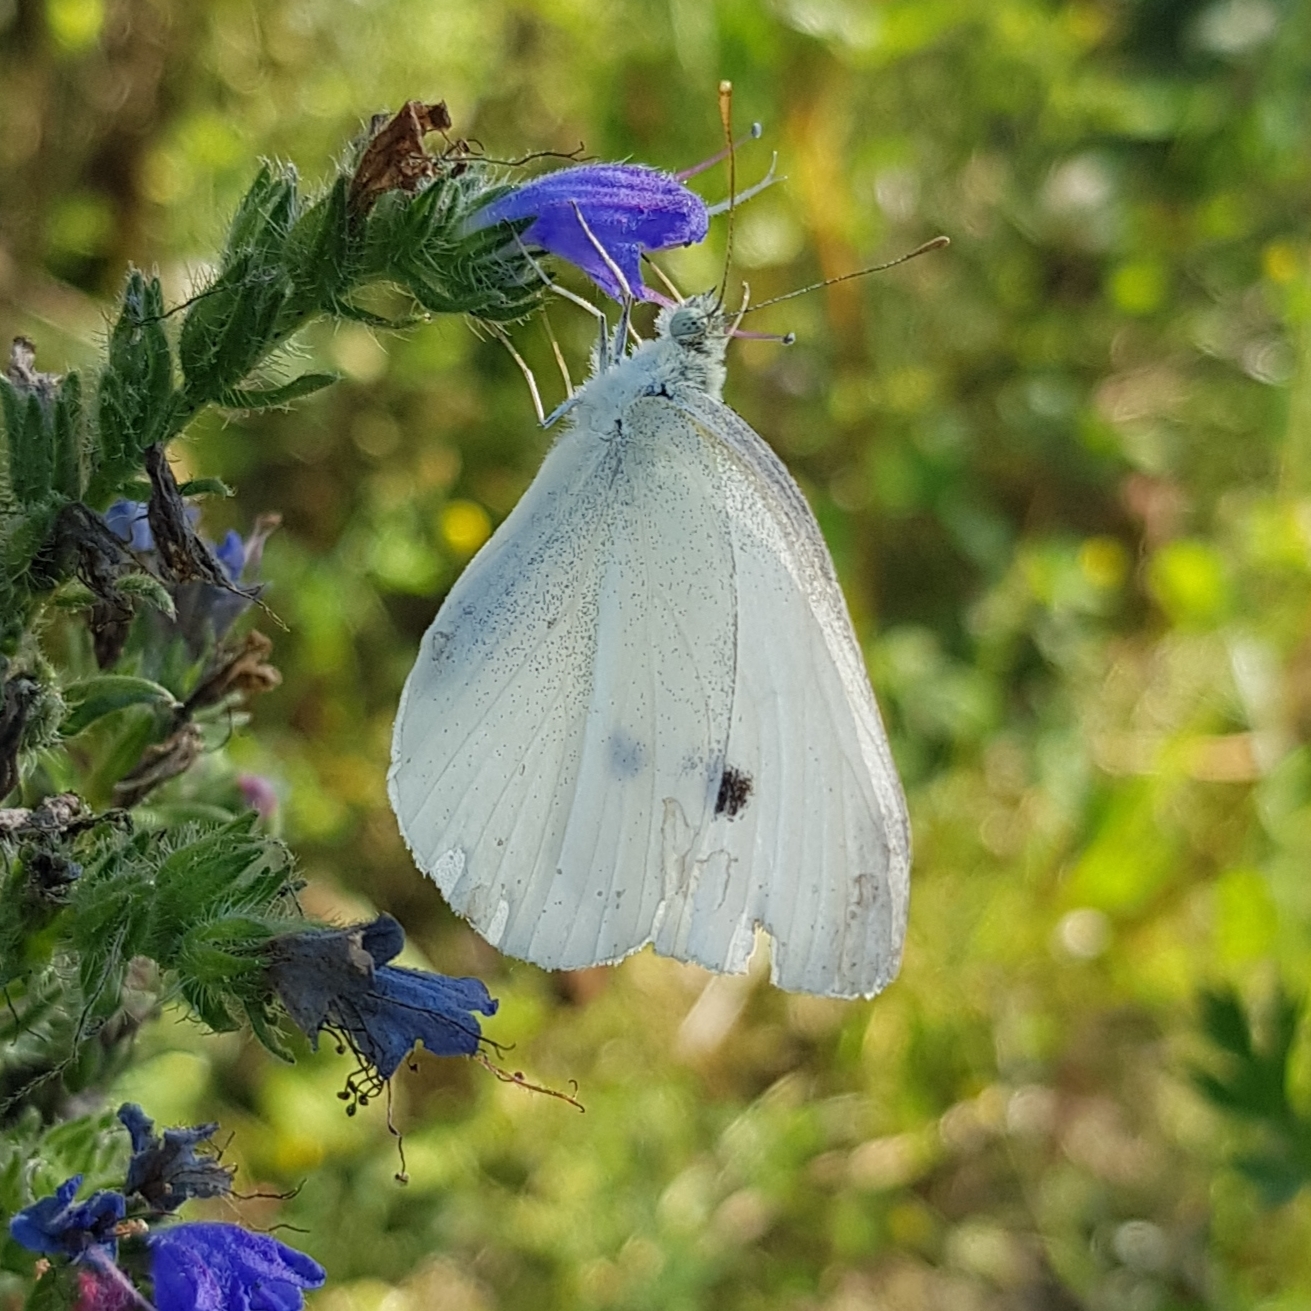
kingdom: Animalia
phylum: Arthropoda
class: Insecta
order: Lepidoptera
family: Pieridae
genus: Pieris
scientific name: Pieris rapae
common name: Small white
